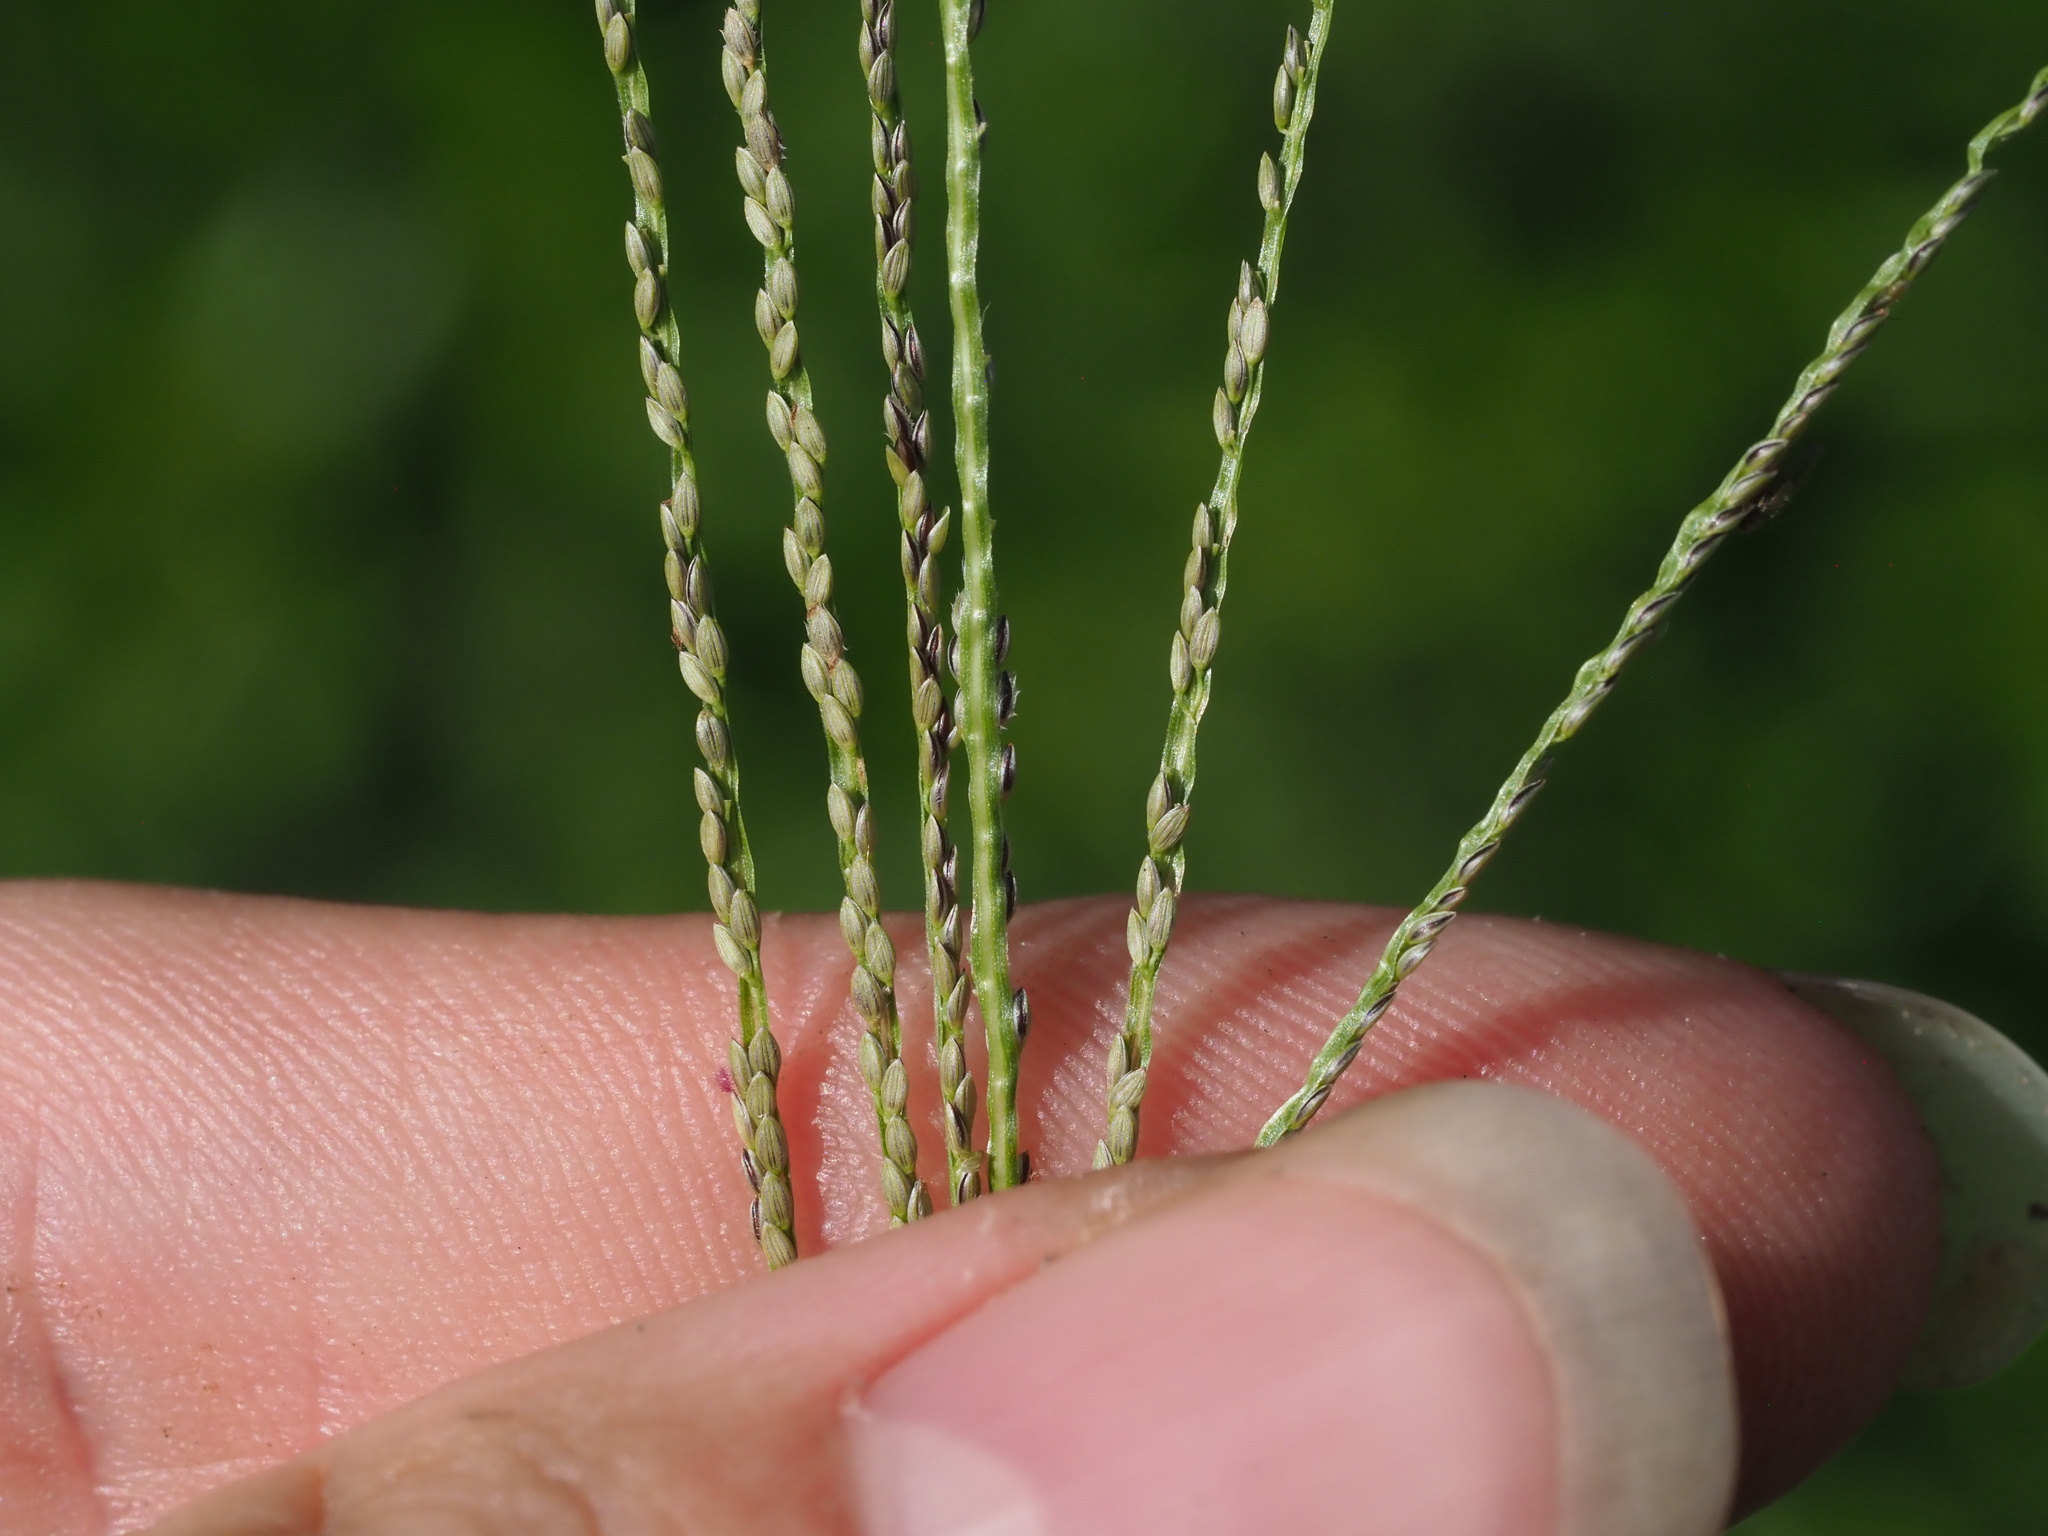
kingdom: Plantae
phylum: Tracheophyta
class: Liliopsida
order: Poales
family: Poaceae
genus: Digitaria
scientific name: Digitaria violascens
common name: Violet crabgrass
